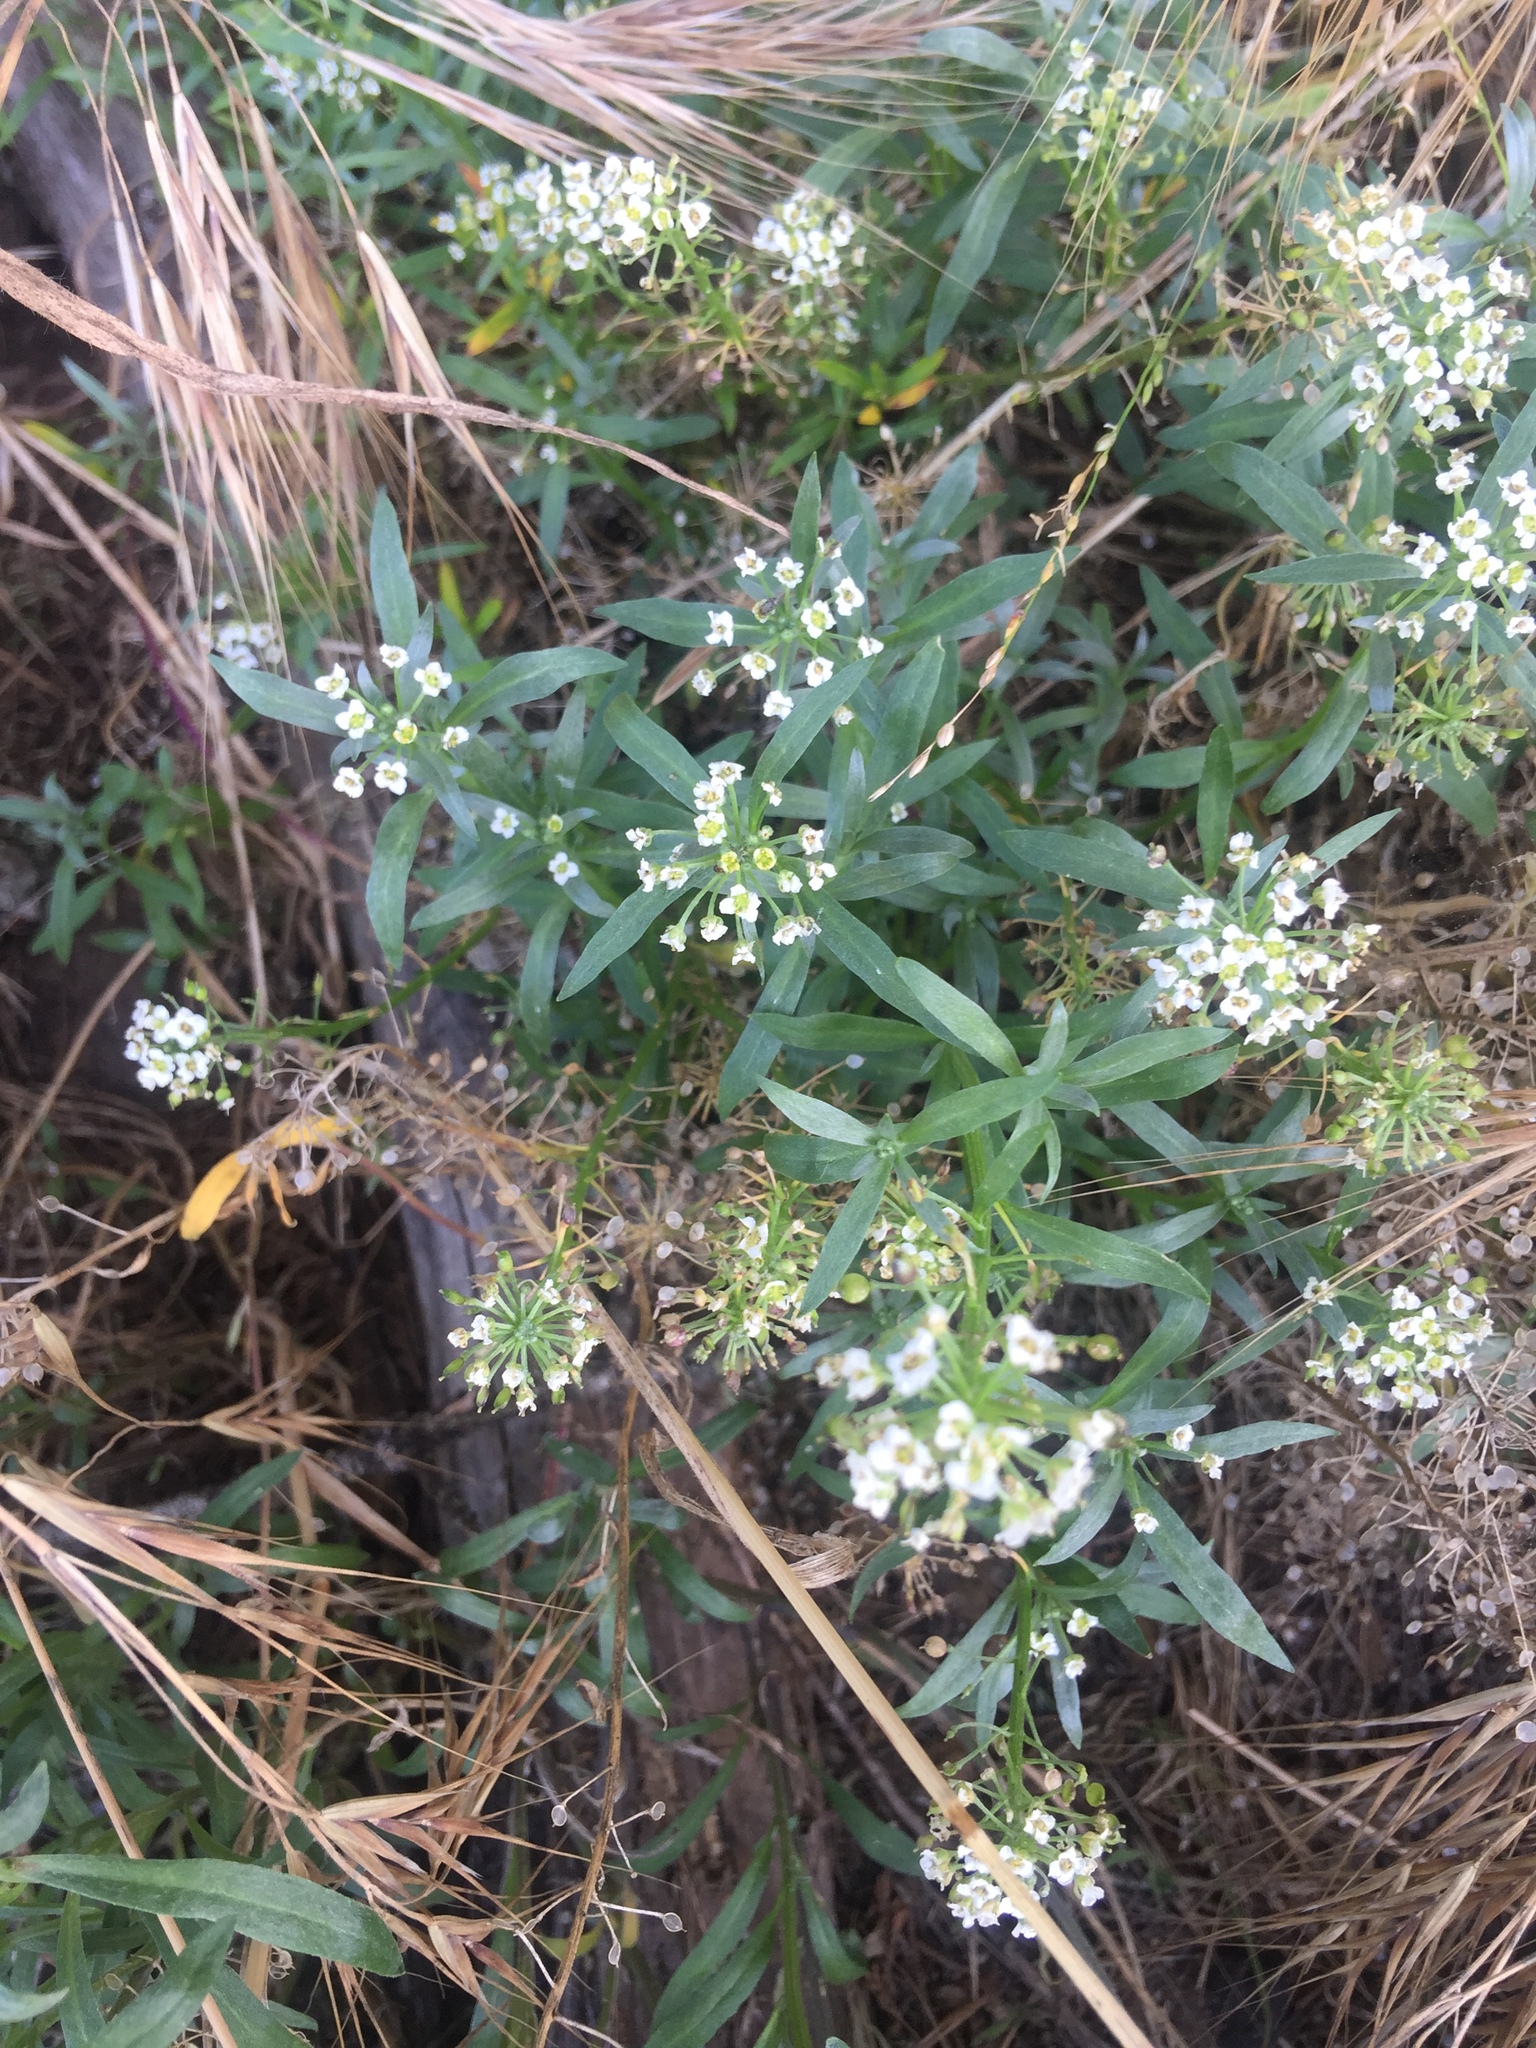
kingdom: Plantae
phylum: Tracheophyta
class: Magnoliopsida
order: Brassicales
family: Brassicaceae
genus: Lobularia
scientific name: Lobularia maritima
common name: Sweet alison
